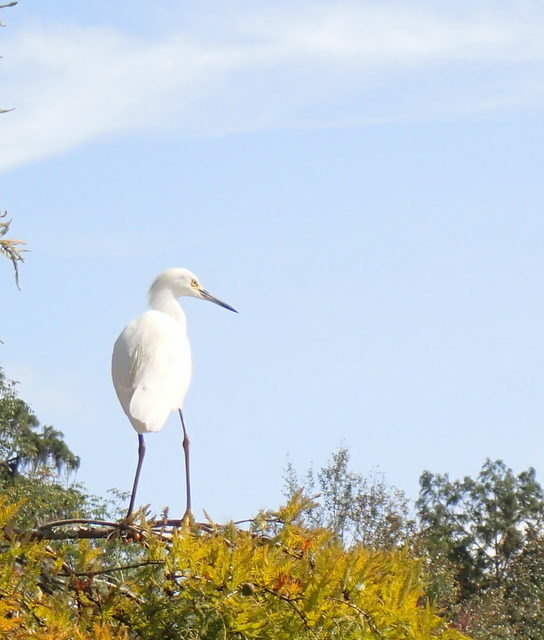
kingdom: Animalia
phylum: Chordata
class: Aves
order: Pelecaniformes
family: Ardeidae
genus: Egretta
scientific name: Egretta thula
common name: Snowy egret
